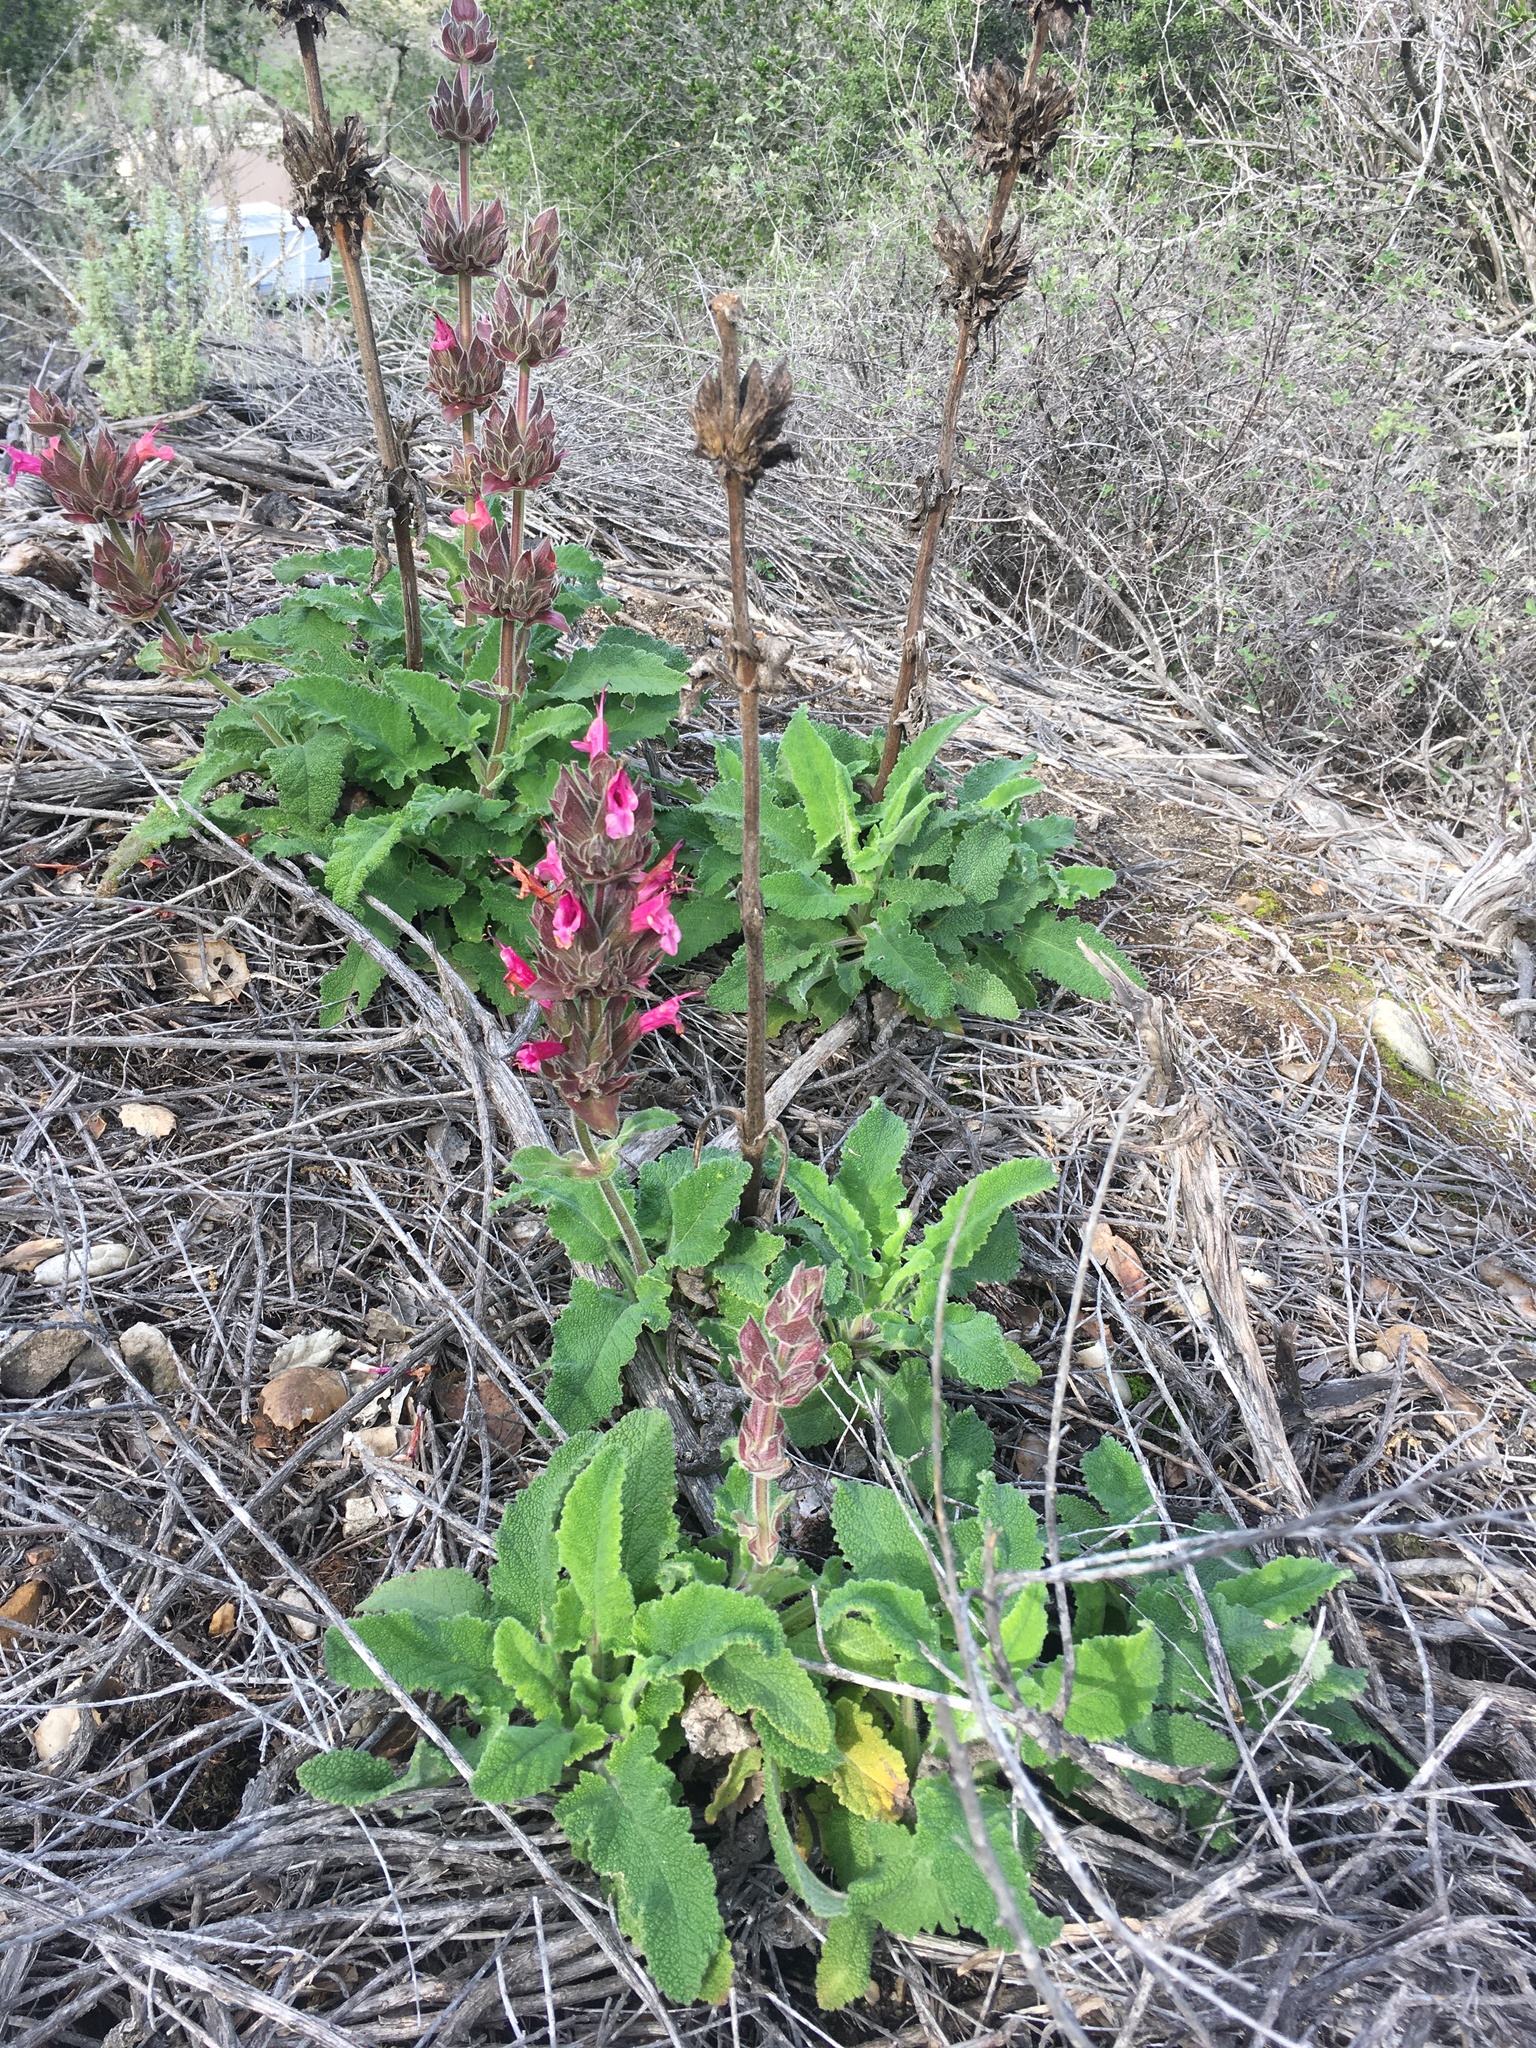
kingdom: Plantae
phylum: Tracheophyta
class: Magnoliopsida
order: Lamiales
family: Lamiaceae
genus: Salvia
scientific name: Salvia spathacea
